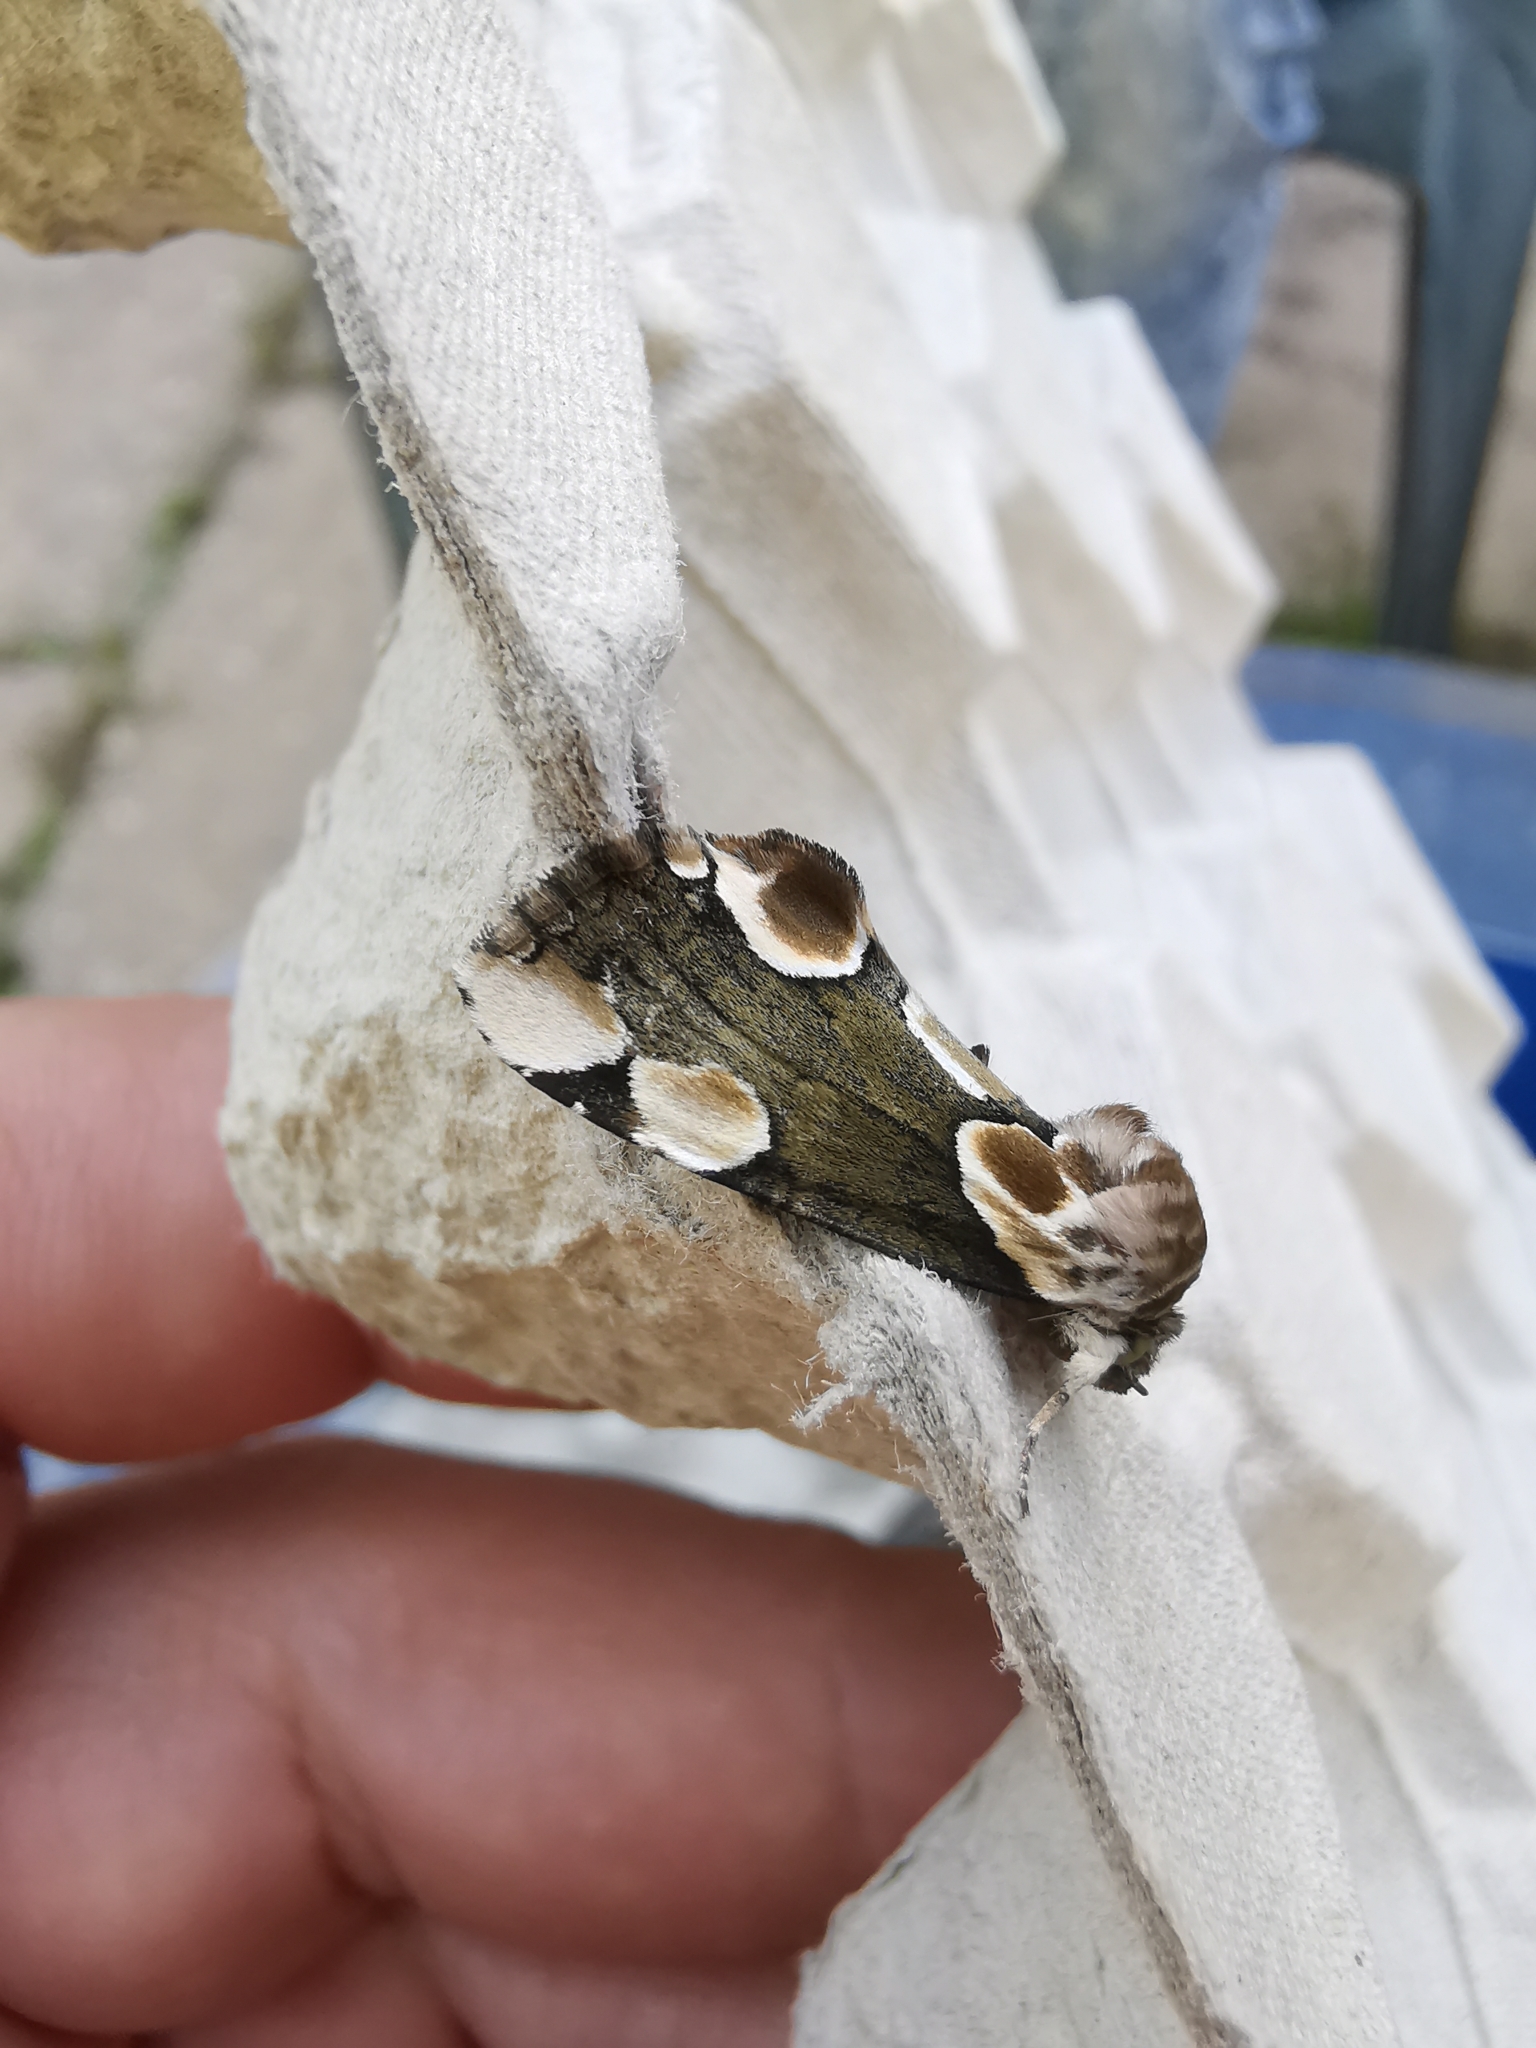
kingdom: Animalia
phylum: Arthropoda
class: Insecta
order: Lepidoptera
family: Drepanidae
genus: Thyatira
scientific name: Thyatira batis
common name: Peach blossom
